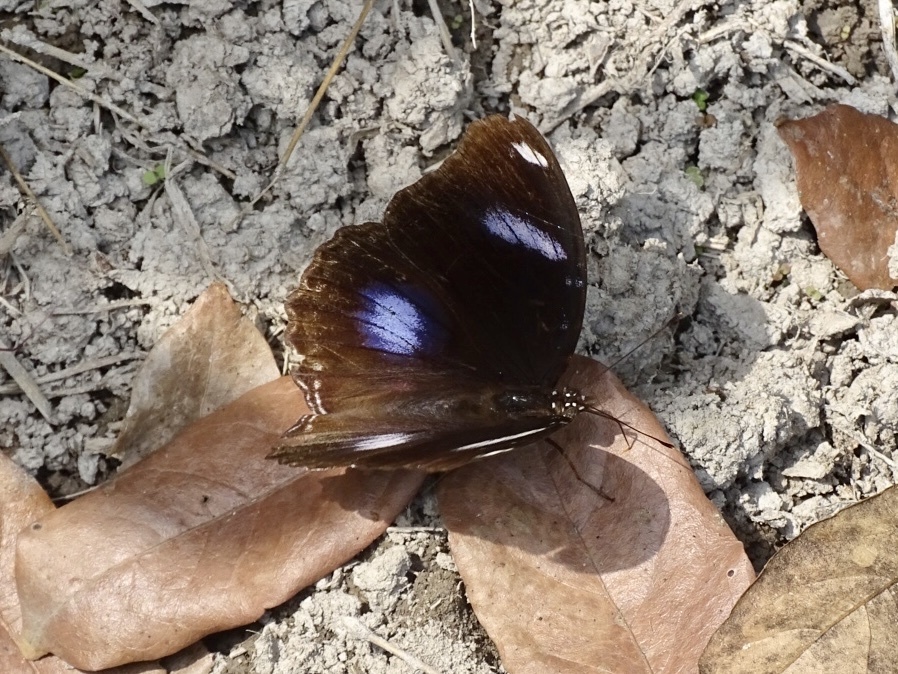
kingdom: Animalia
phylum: Arthropoda
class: Insecta
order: Lepidoptera
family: Nymphalidae
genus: Hypolimnas
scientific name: Hypolimnas bolina
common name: Great eggfly
